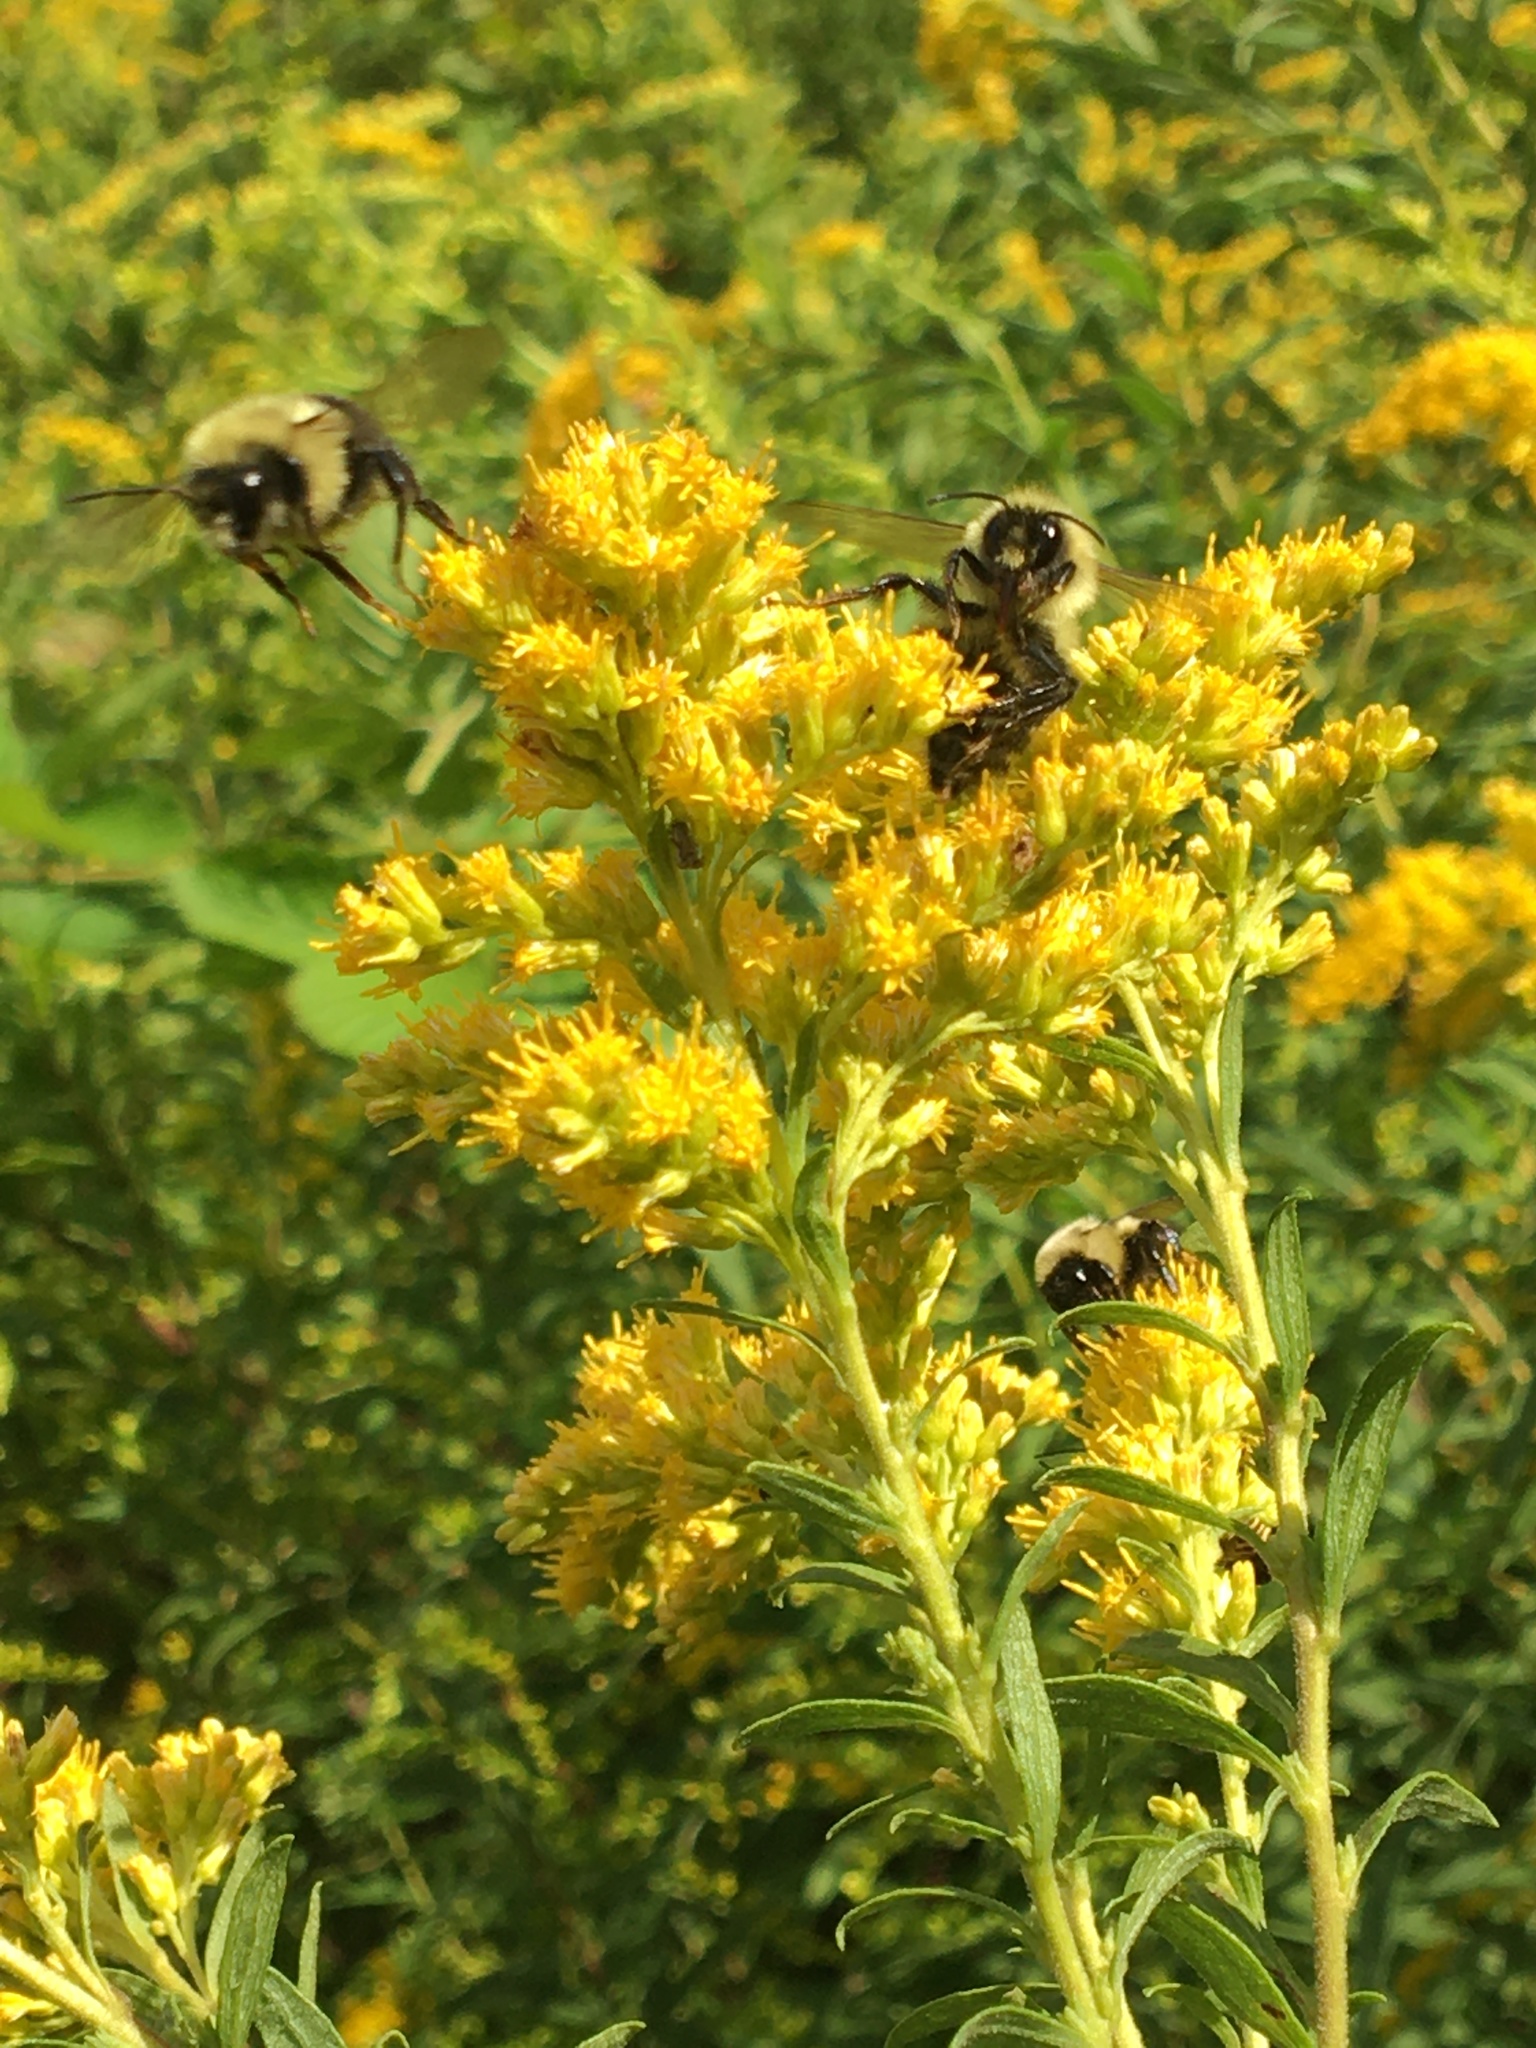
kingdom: Animalia
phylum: Arthropoda
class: Insecta
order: Hymenoptera
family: Apidae
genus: Bombus
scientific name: Bombus impatiens
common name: Common eastern bumble bee
